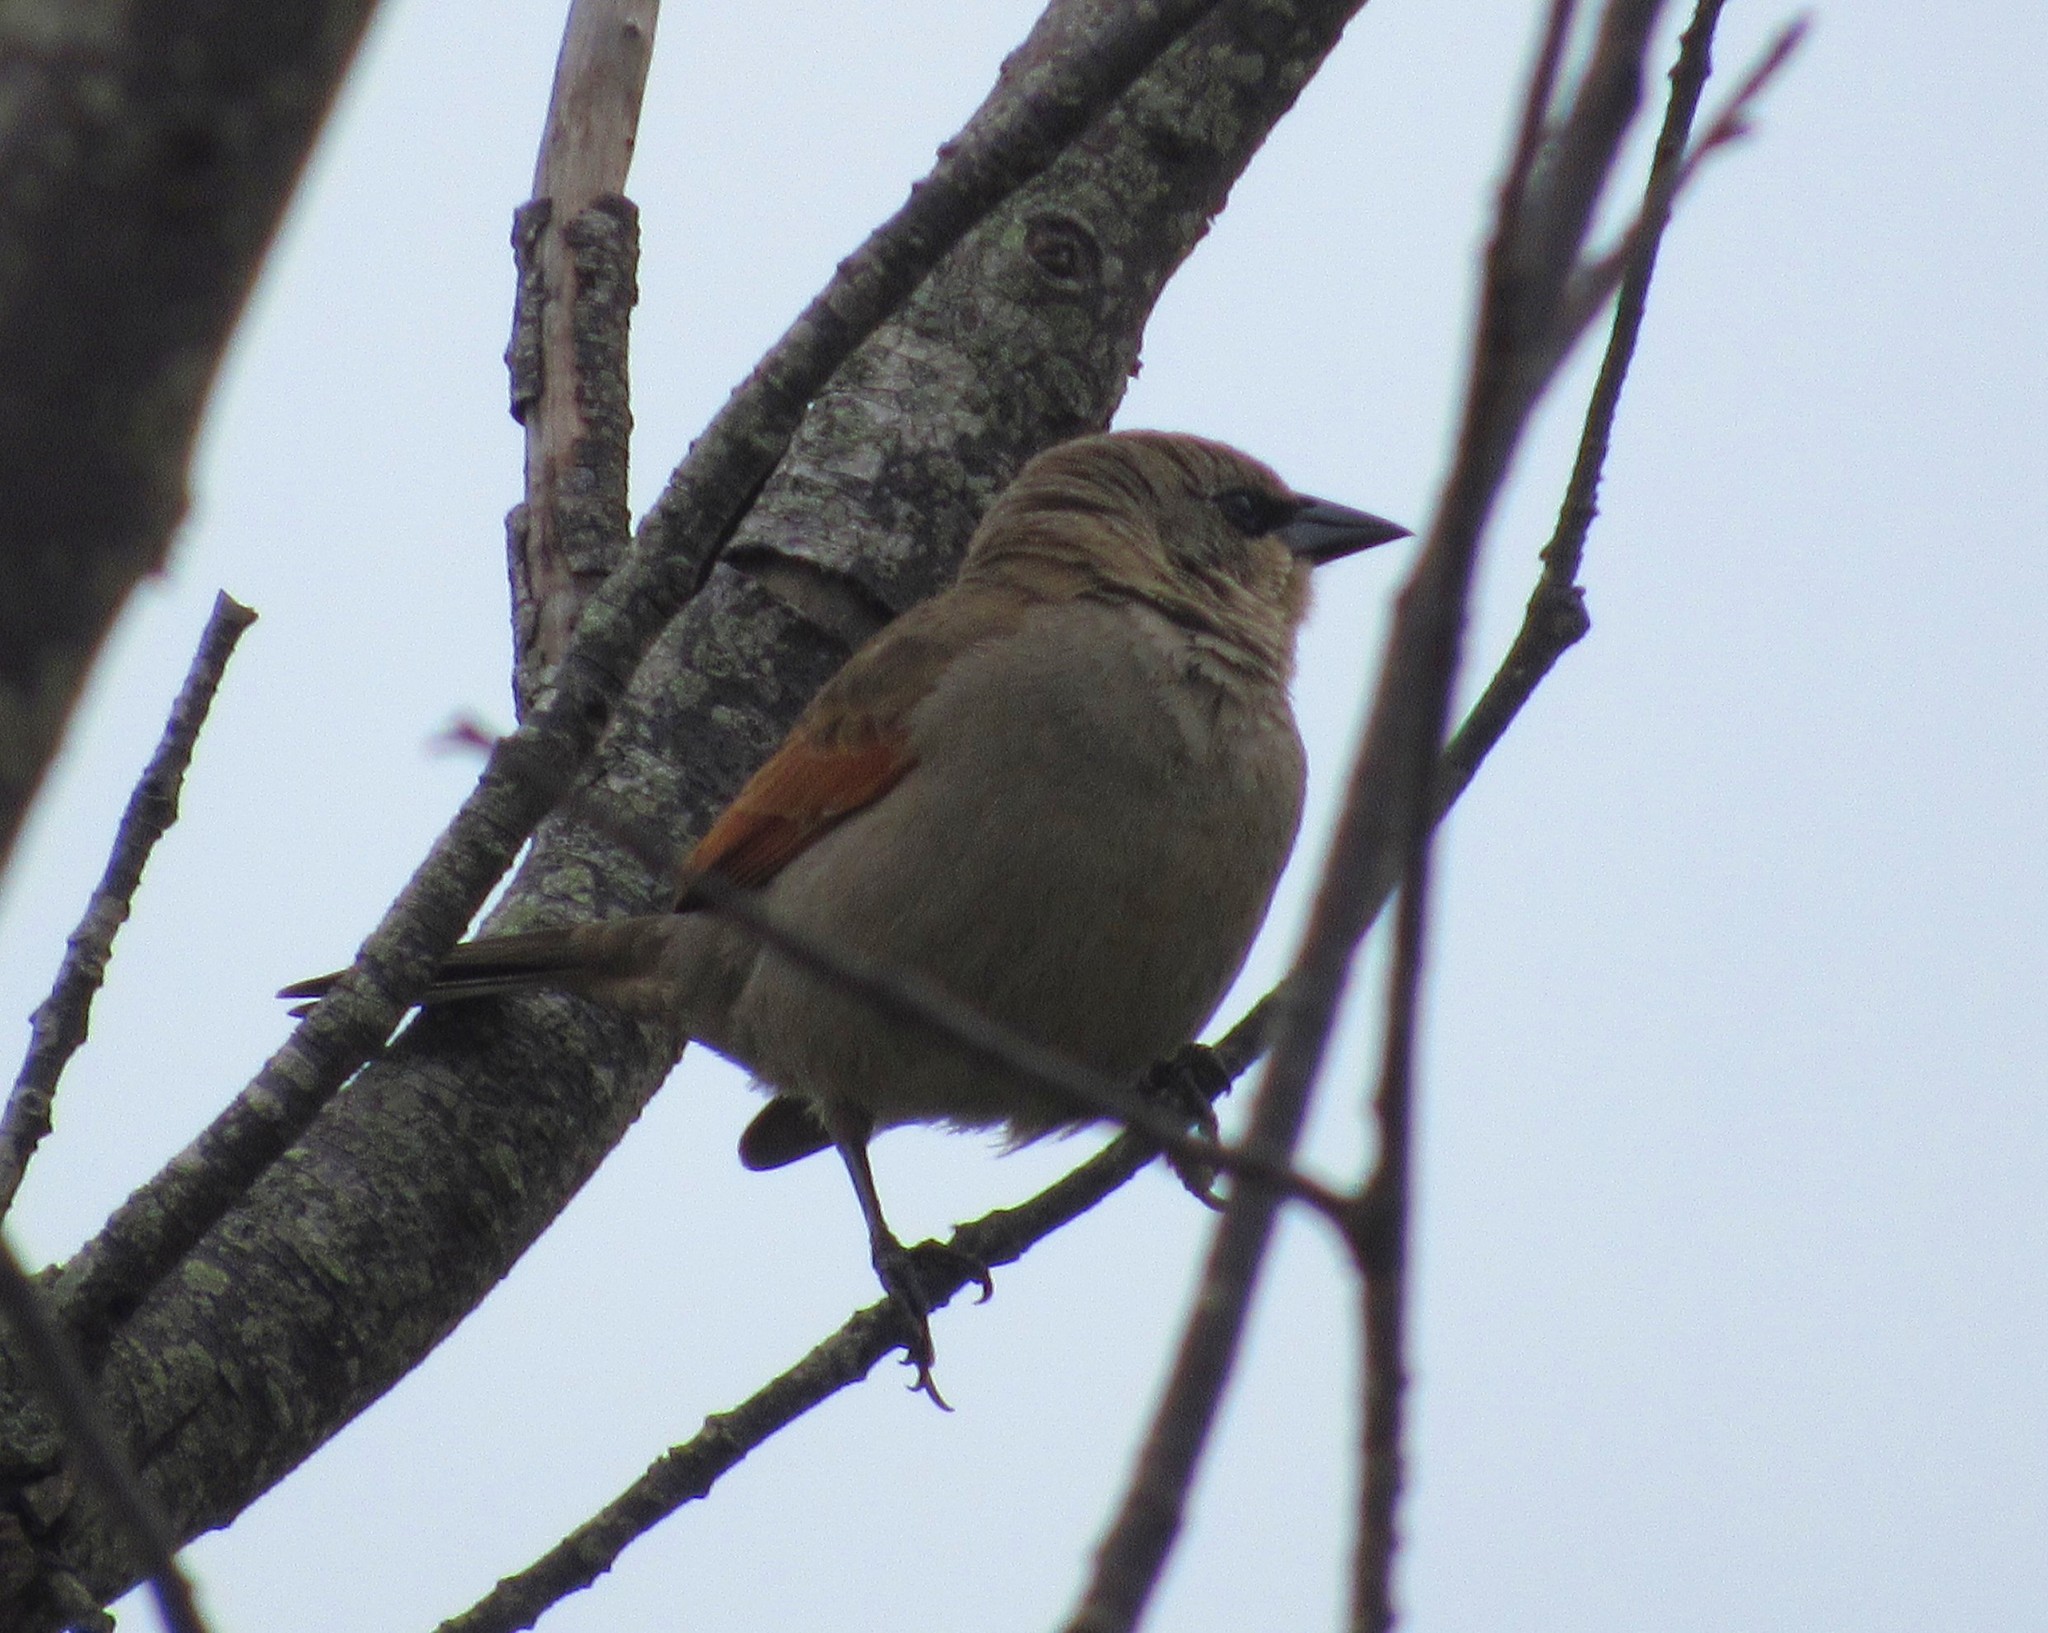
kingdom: Animalia
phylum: Chordata
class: Aves
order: Passeriformes
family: Icteridae
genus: Agelaioides
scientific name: Agelaioides badius
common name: Baywing
